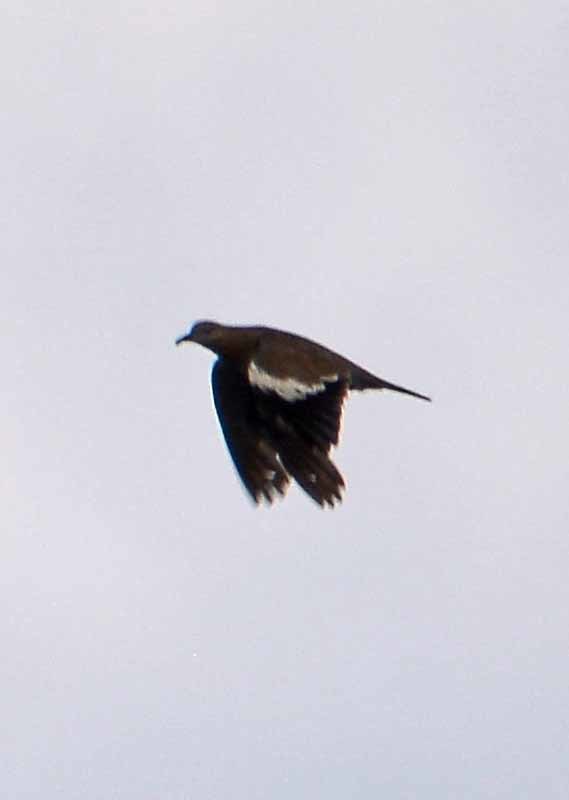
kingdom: Animalia
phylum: Chordata
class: Aves
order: Columbiformes
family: Columbidae
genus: Zenaida
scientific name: Zenaida asiatica
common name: White-winged dove
